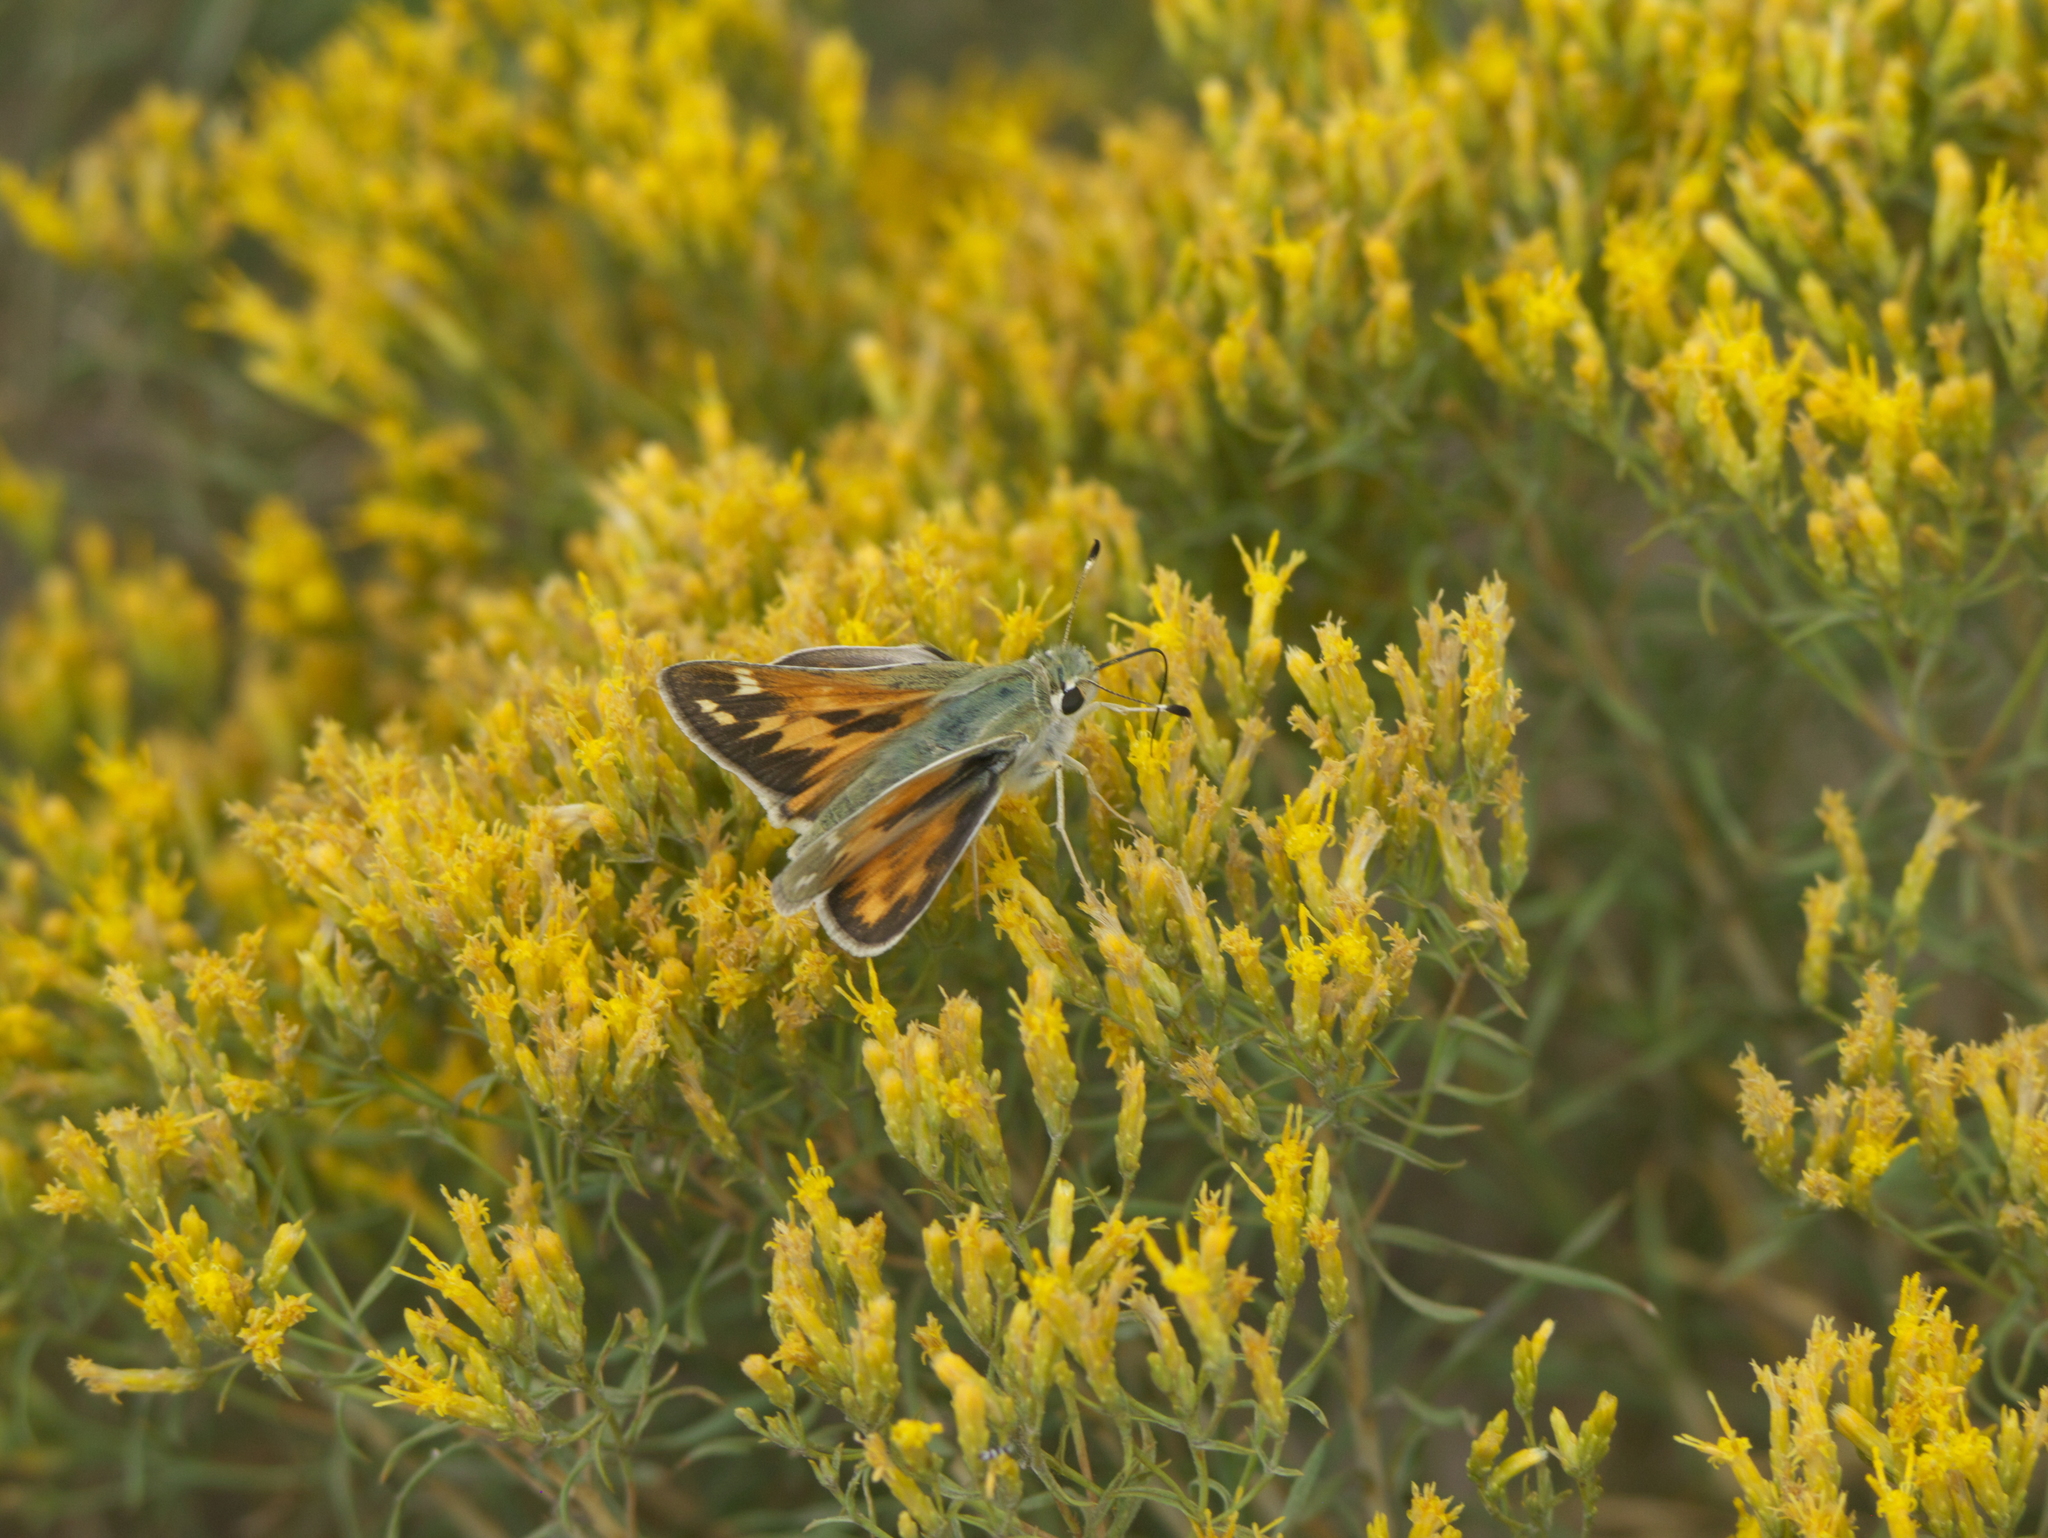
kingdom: Plantae
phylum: Tracheophyta
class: Magnoliopsida
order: Asterales
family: Asteraceae
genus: Chrysothamnus
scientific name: Chrysothamnus viscidiflorus
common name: Yellow rabbitbrush
